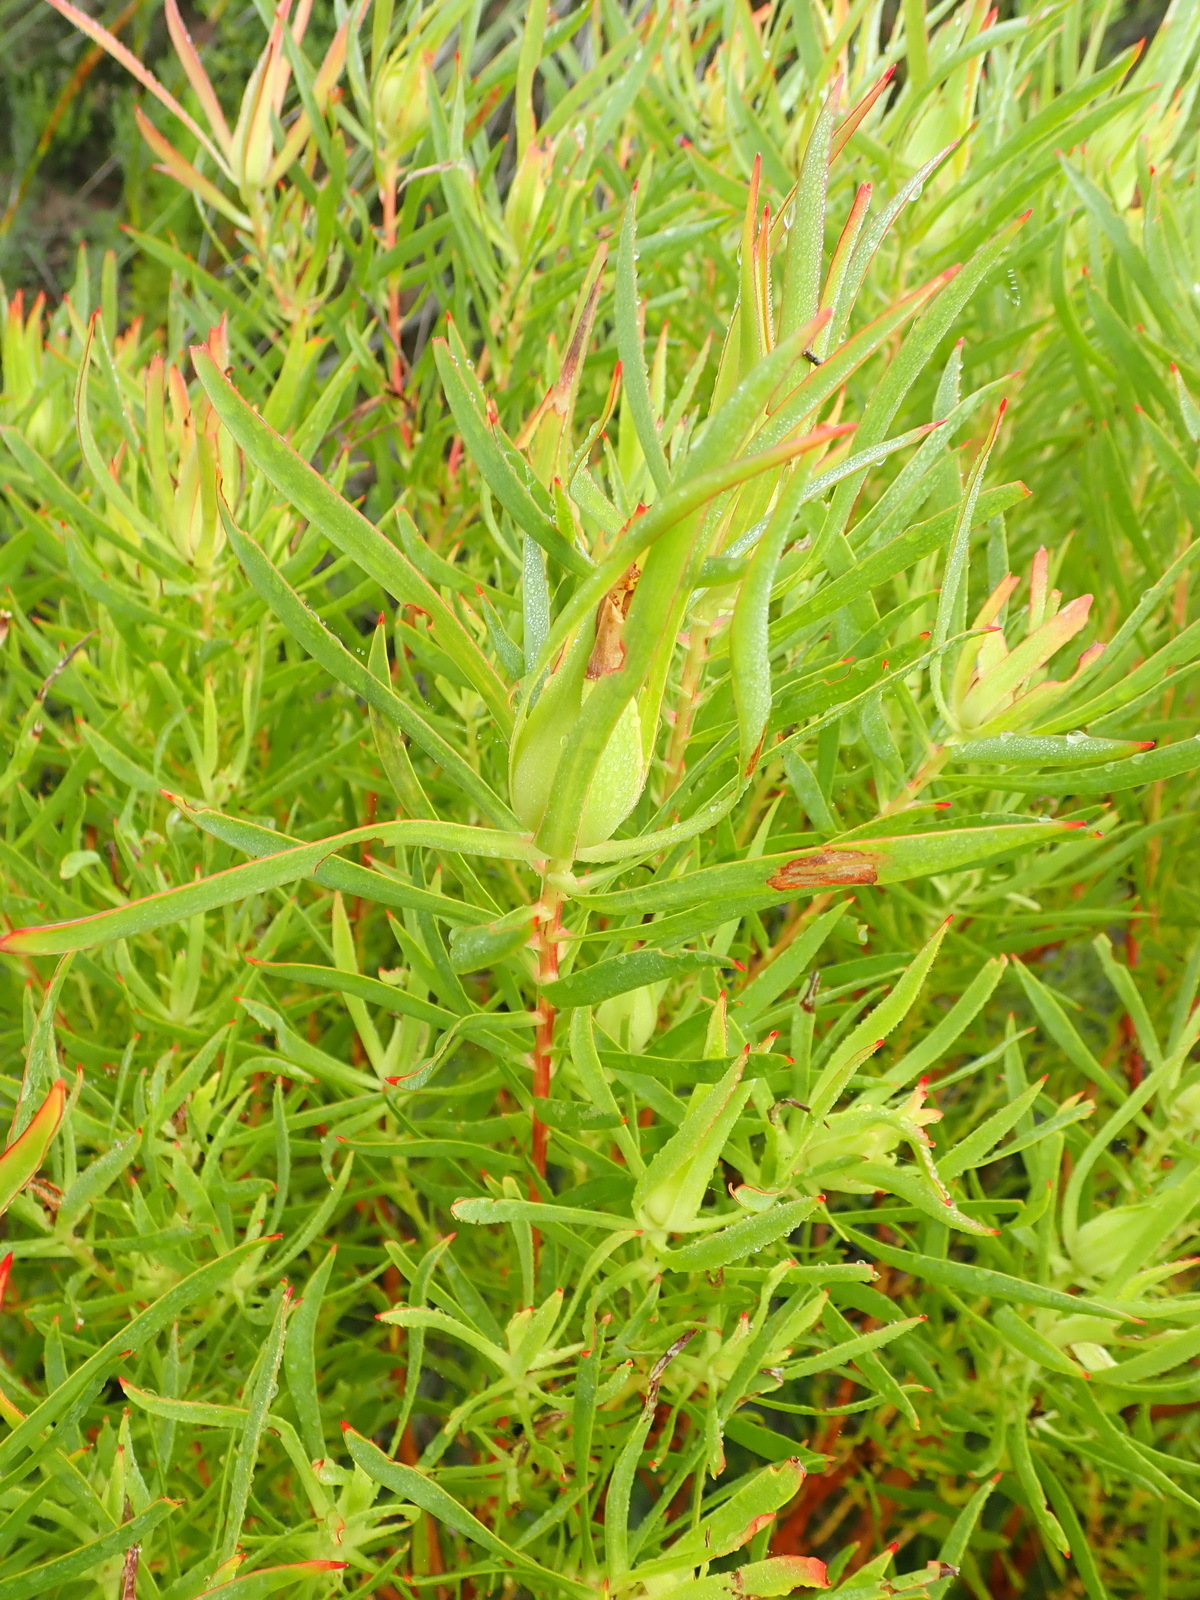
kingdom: Plantae
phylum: Tracheophyta
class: Magnoliopsida
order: Proteales
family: Proteaceae
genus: Leucadendron
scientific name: Leucadendron salignum
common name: Common sunshine conebush
